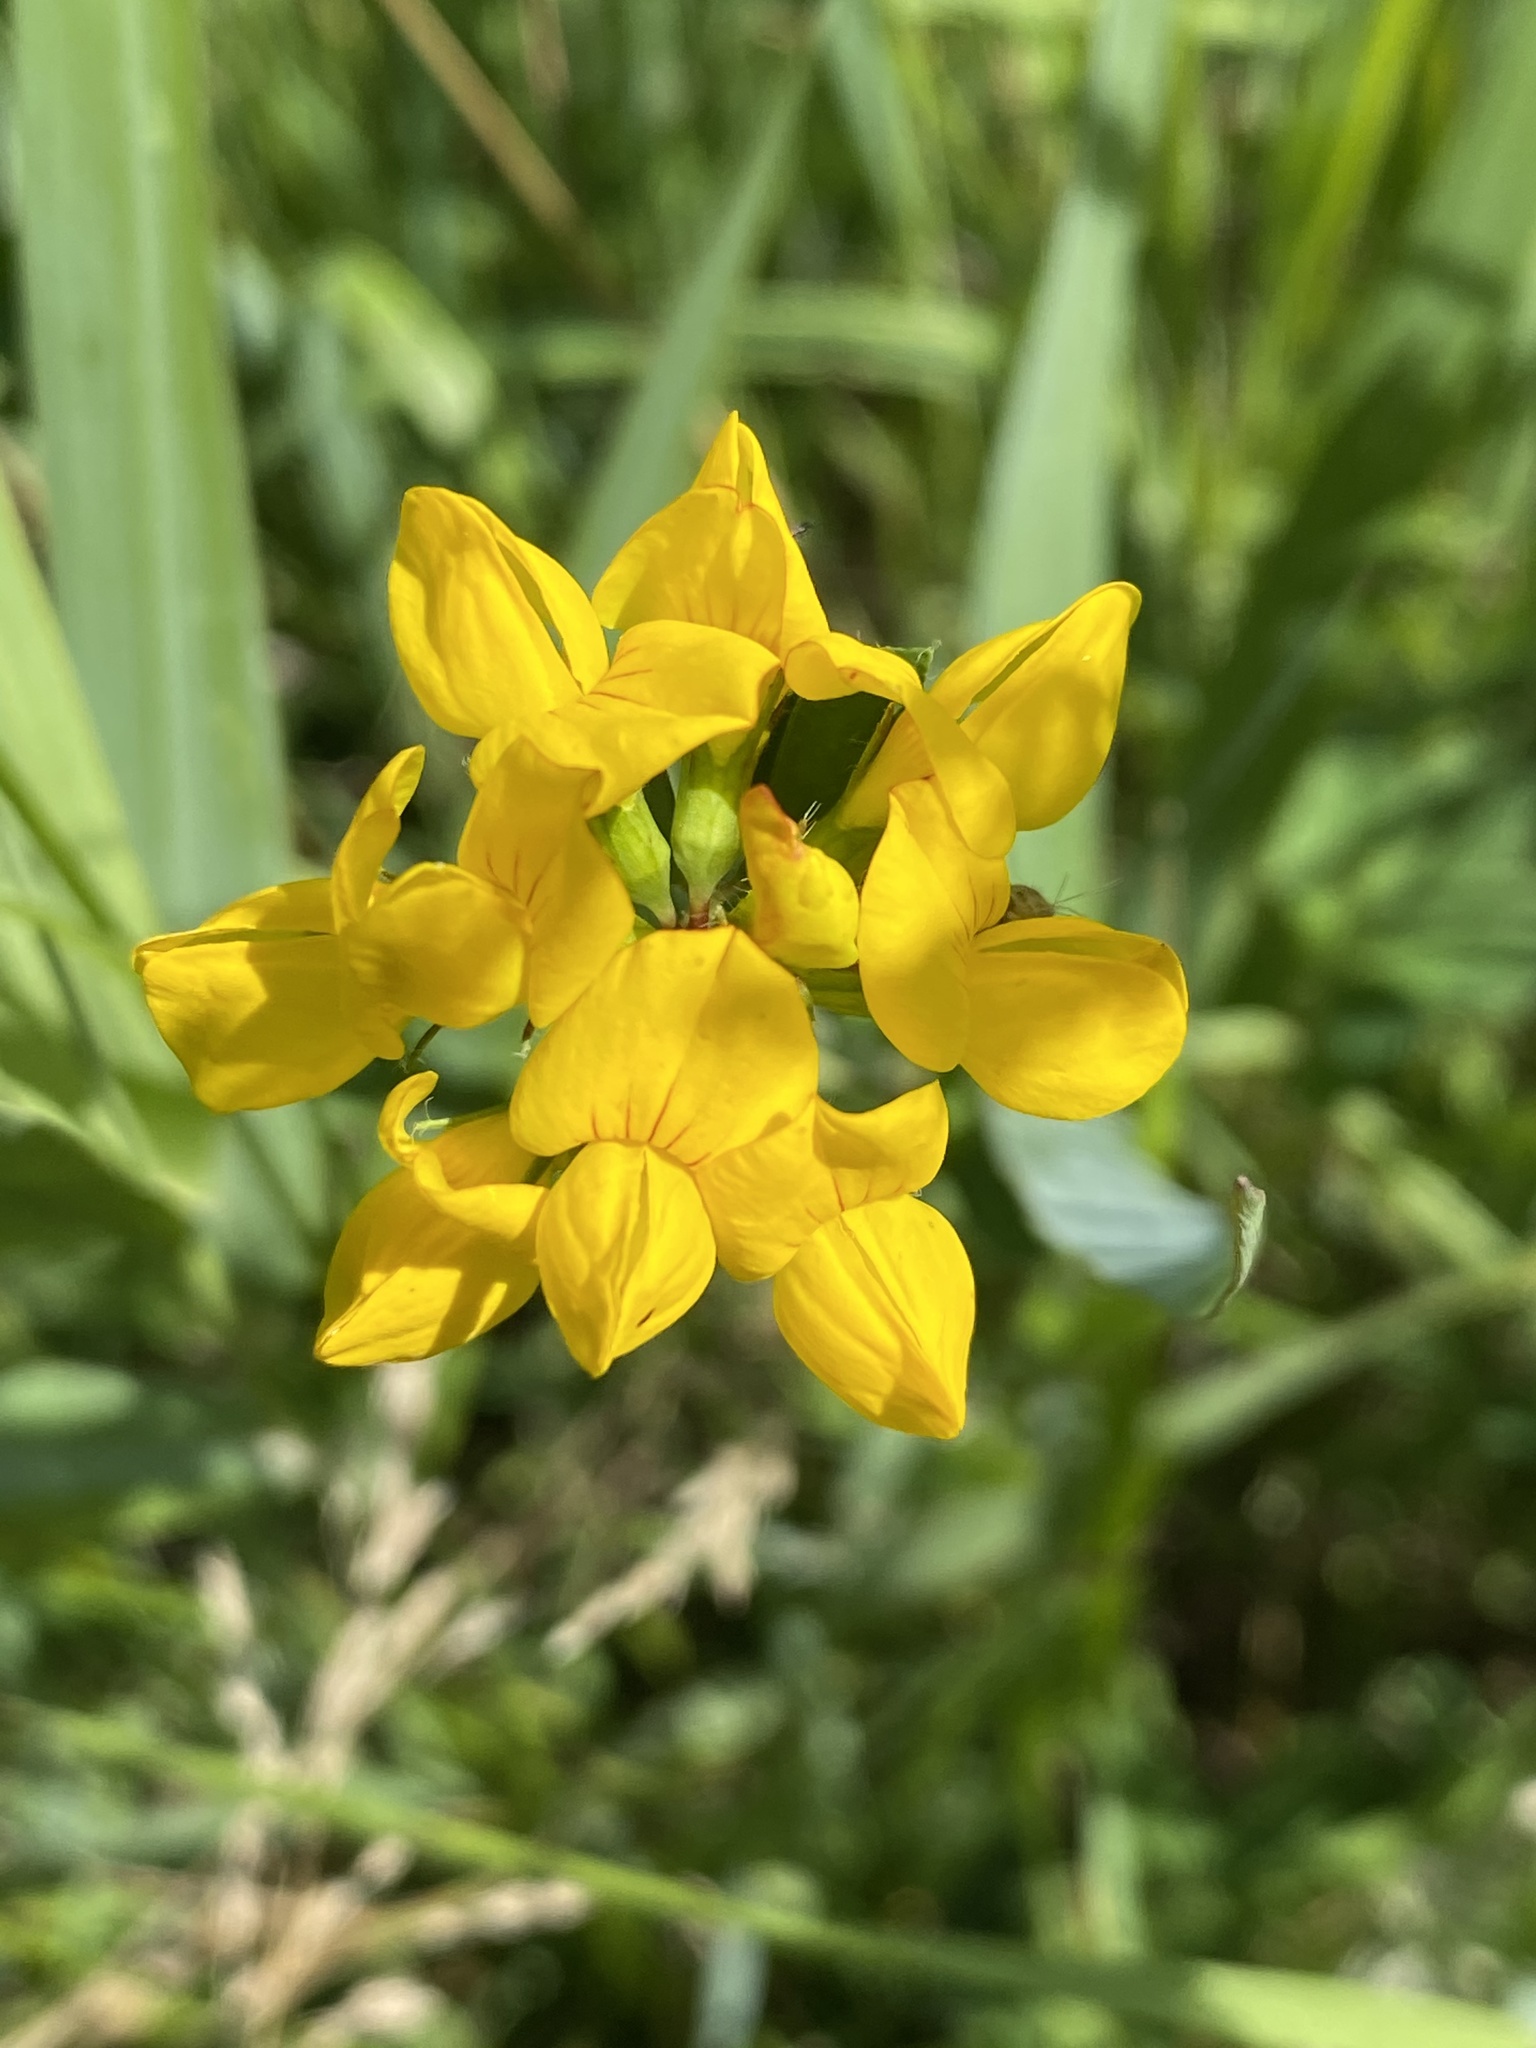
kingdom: Plantae
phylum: Tracheophyta
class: Magnoliopsida
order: Fabales
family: Fabaceae
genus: Lotus
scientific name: Lotus pedunculatus
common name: Greater birdsfoot-trefoil
